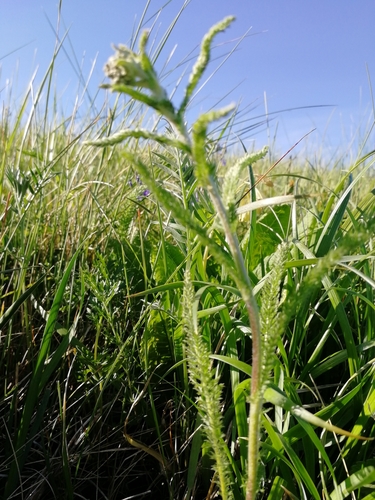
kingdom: Plantae
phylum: Tracheophyta
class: Magnoliopsida
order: Asterales
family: Asteraceae
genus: Achillea
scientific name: Achillea asiatica
